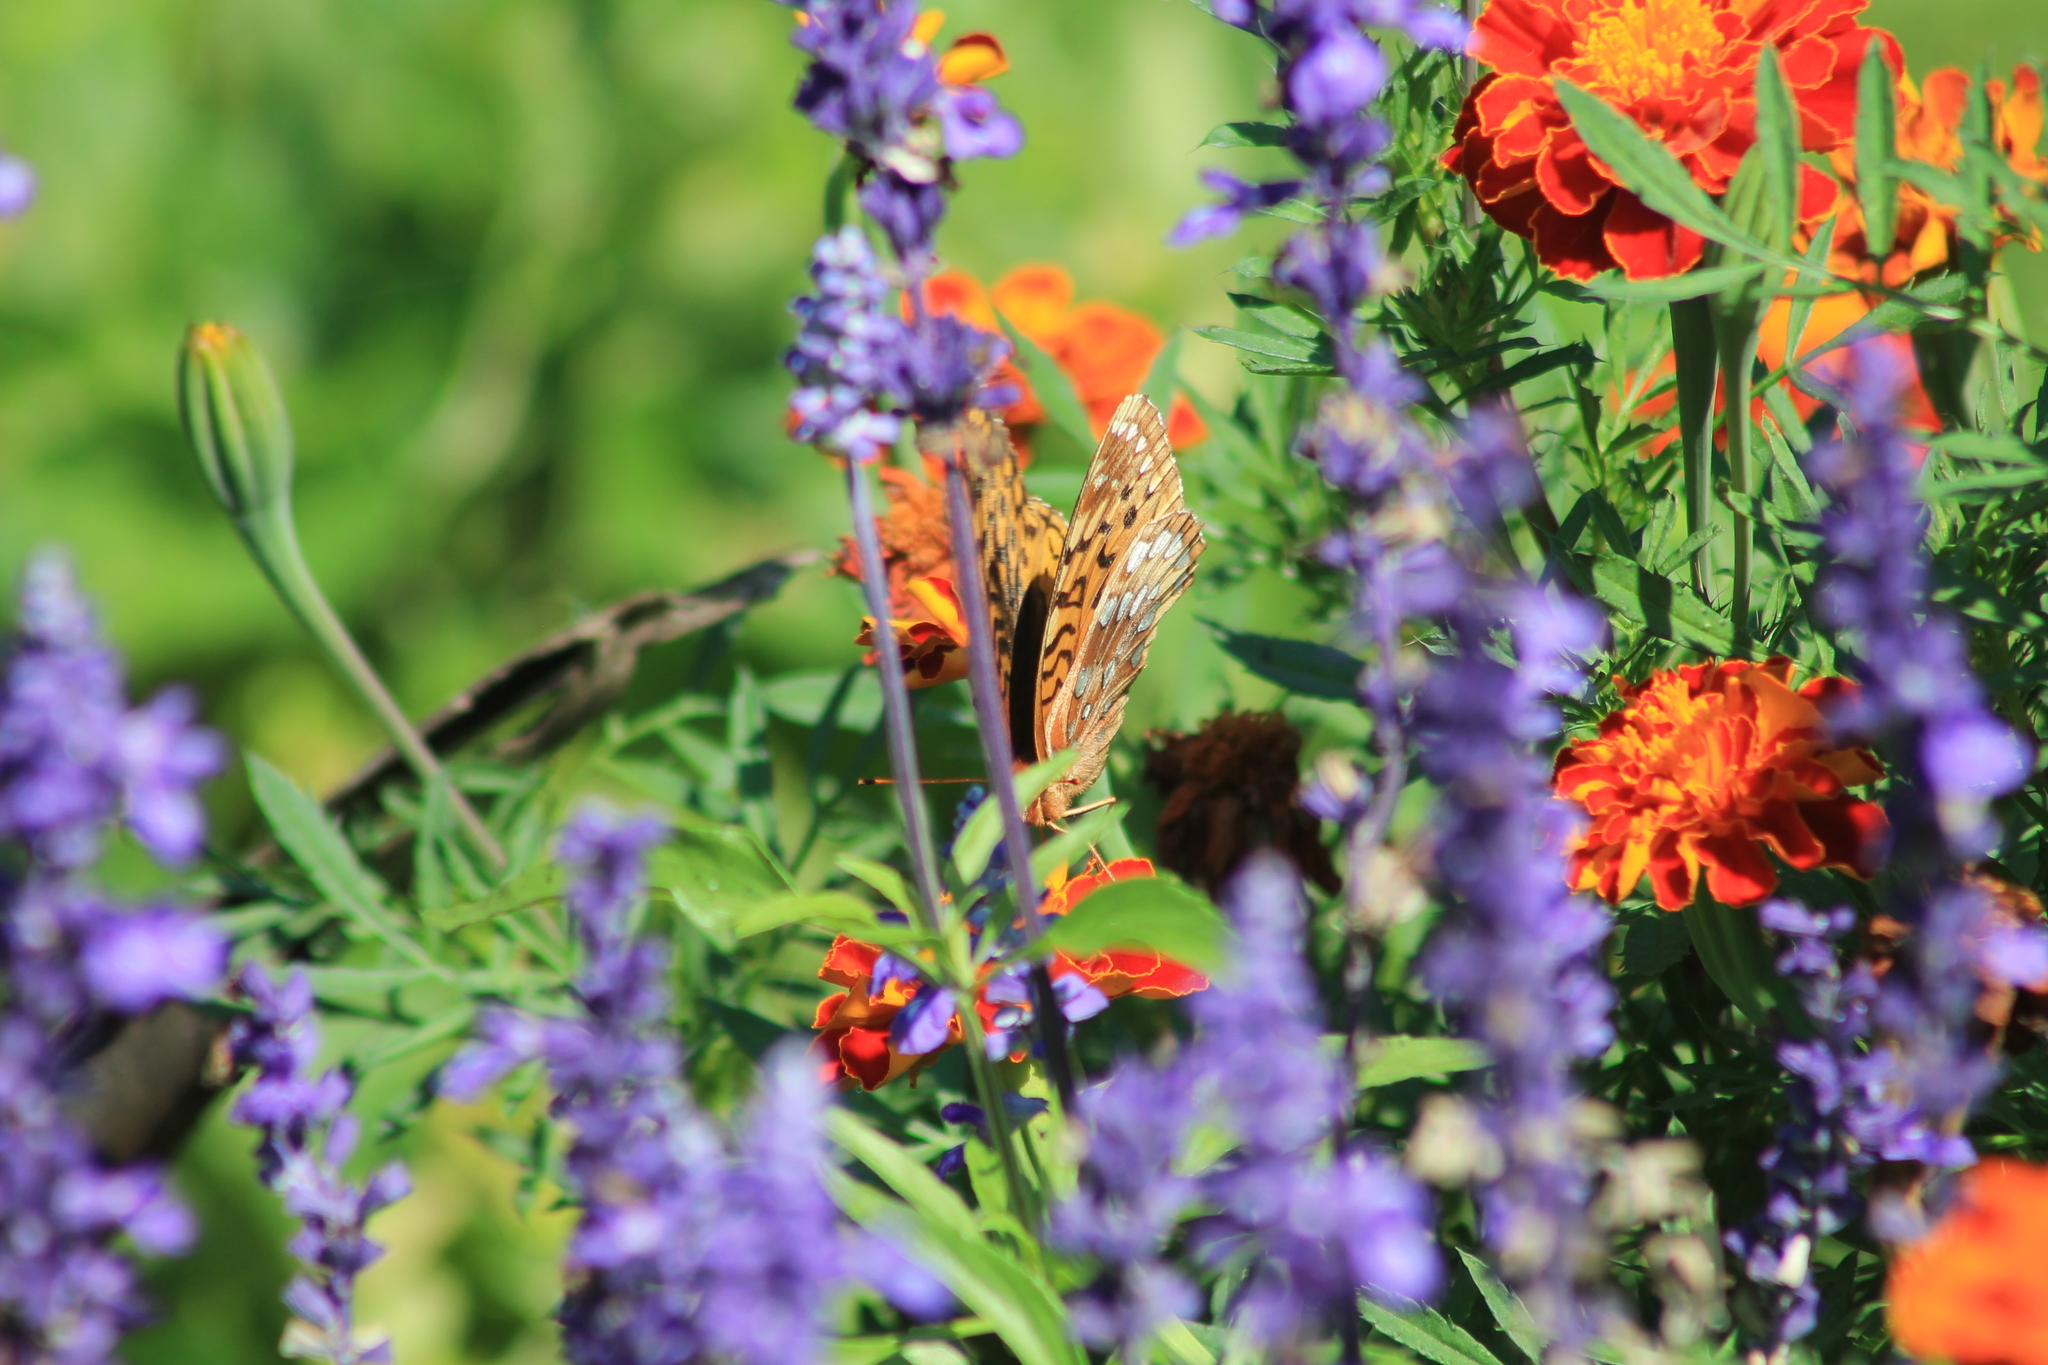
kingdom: Animalia
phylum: Arthropoda
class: Insecta
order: Lepidoptera
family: Nymphalidae
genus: Speyeria
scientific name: Speyeria cybele
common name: Great spangled fritillary
